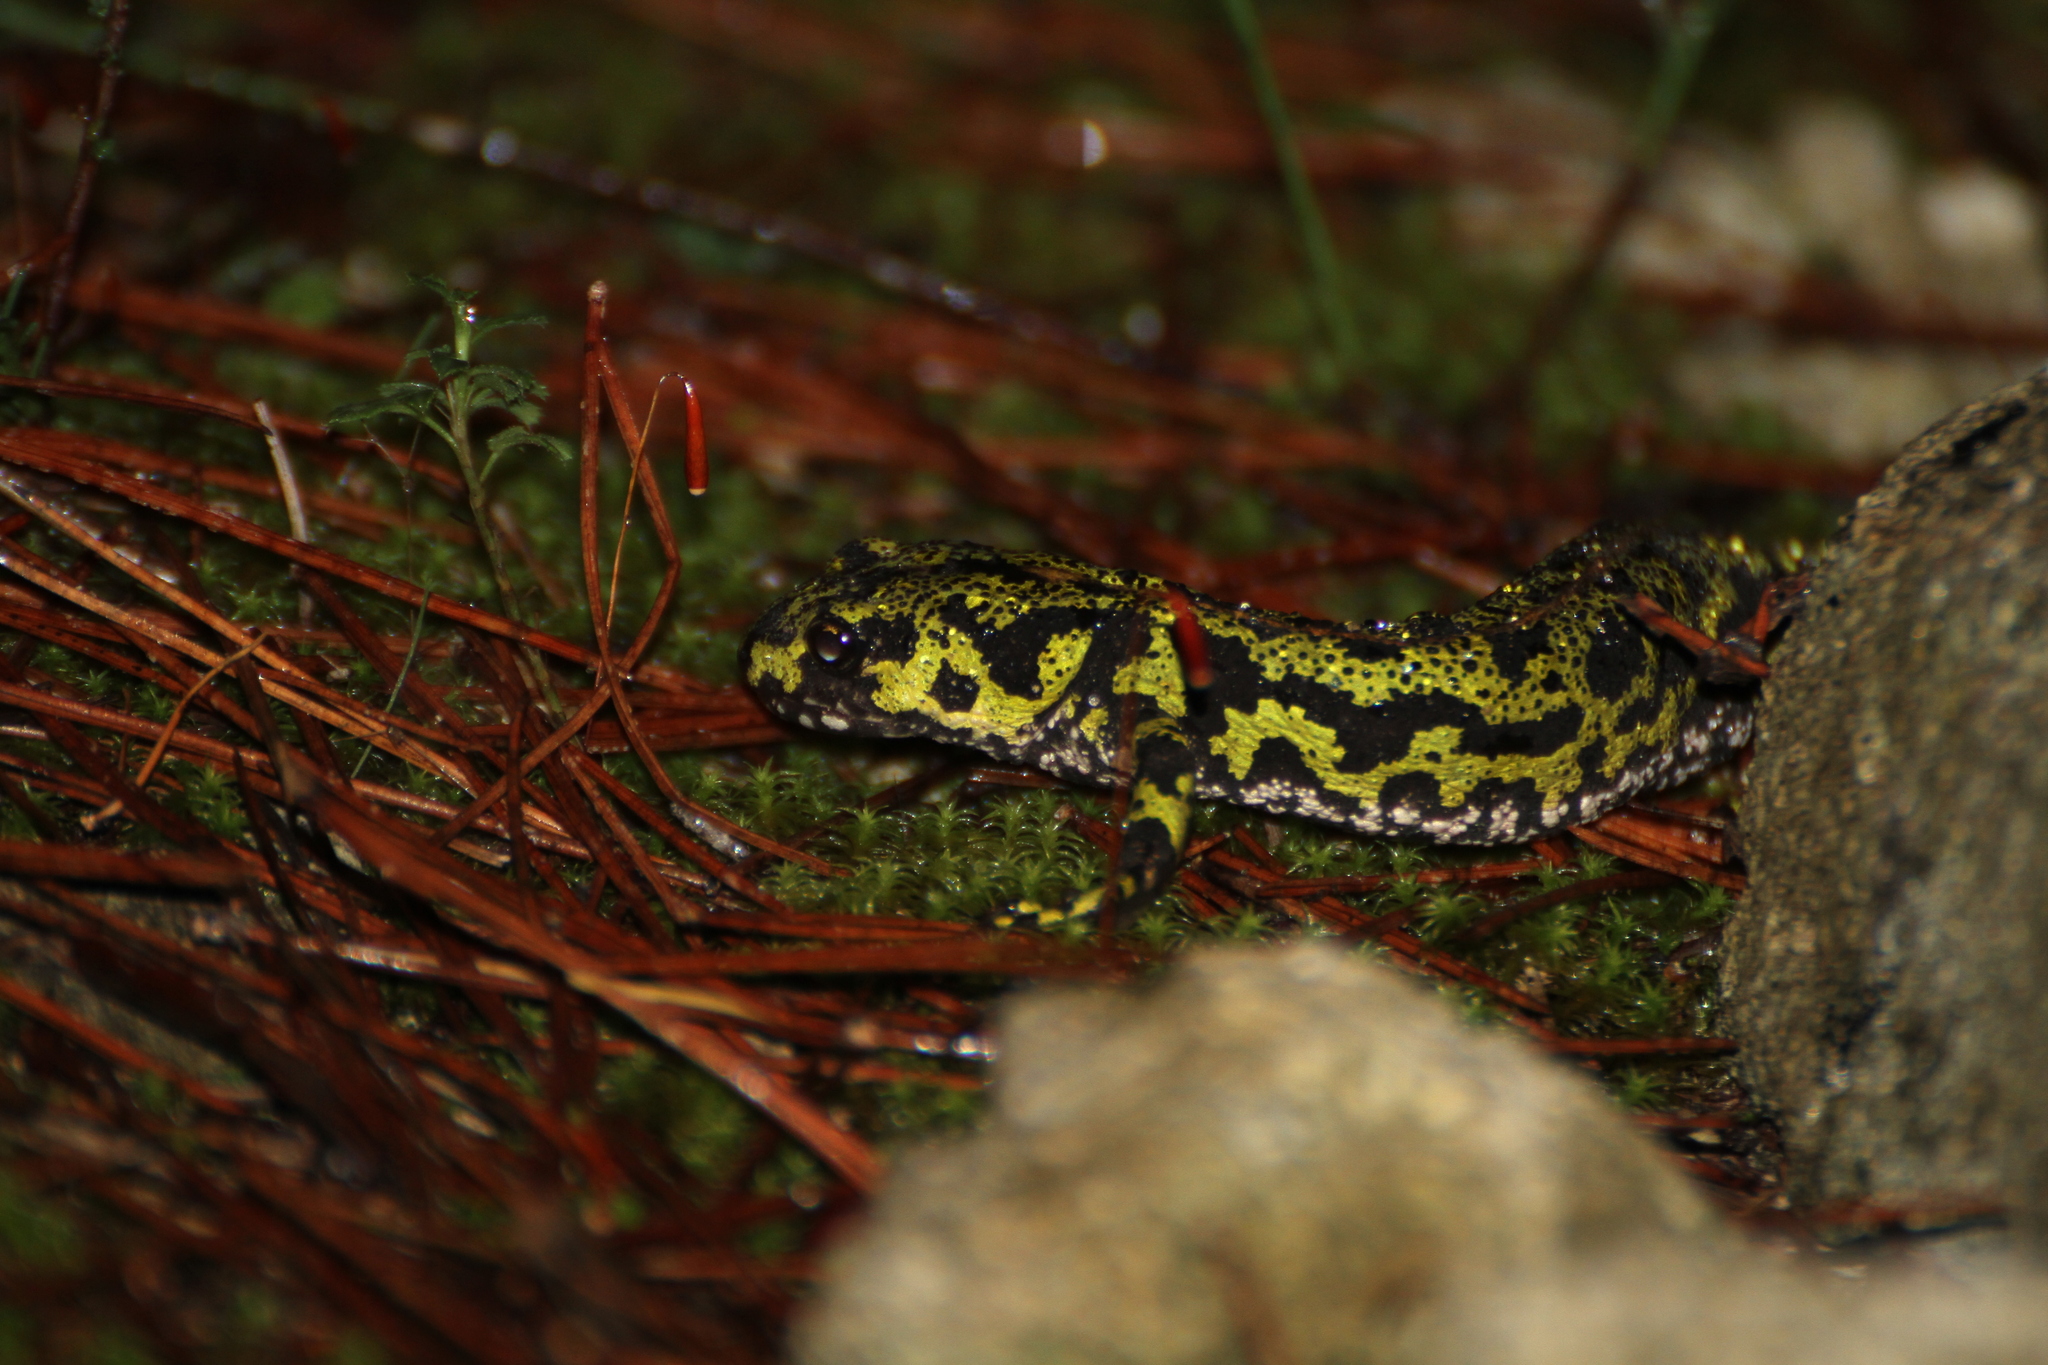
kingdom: Animalia
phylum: Chordata
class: Amphibia
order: Caudata
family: Salamandridae
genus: Triturus
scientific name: Triturus marmoratus
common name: Marbled newt
